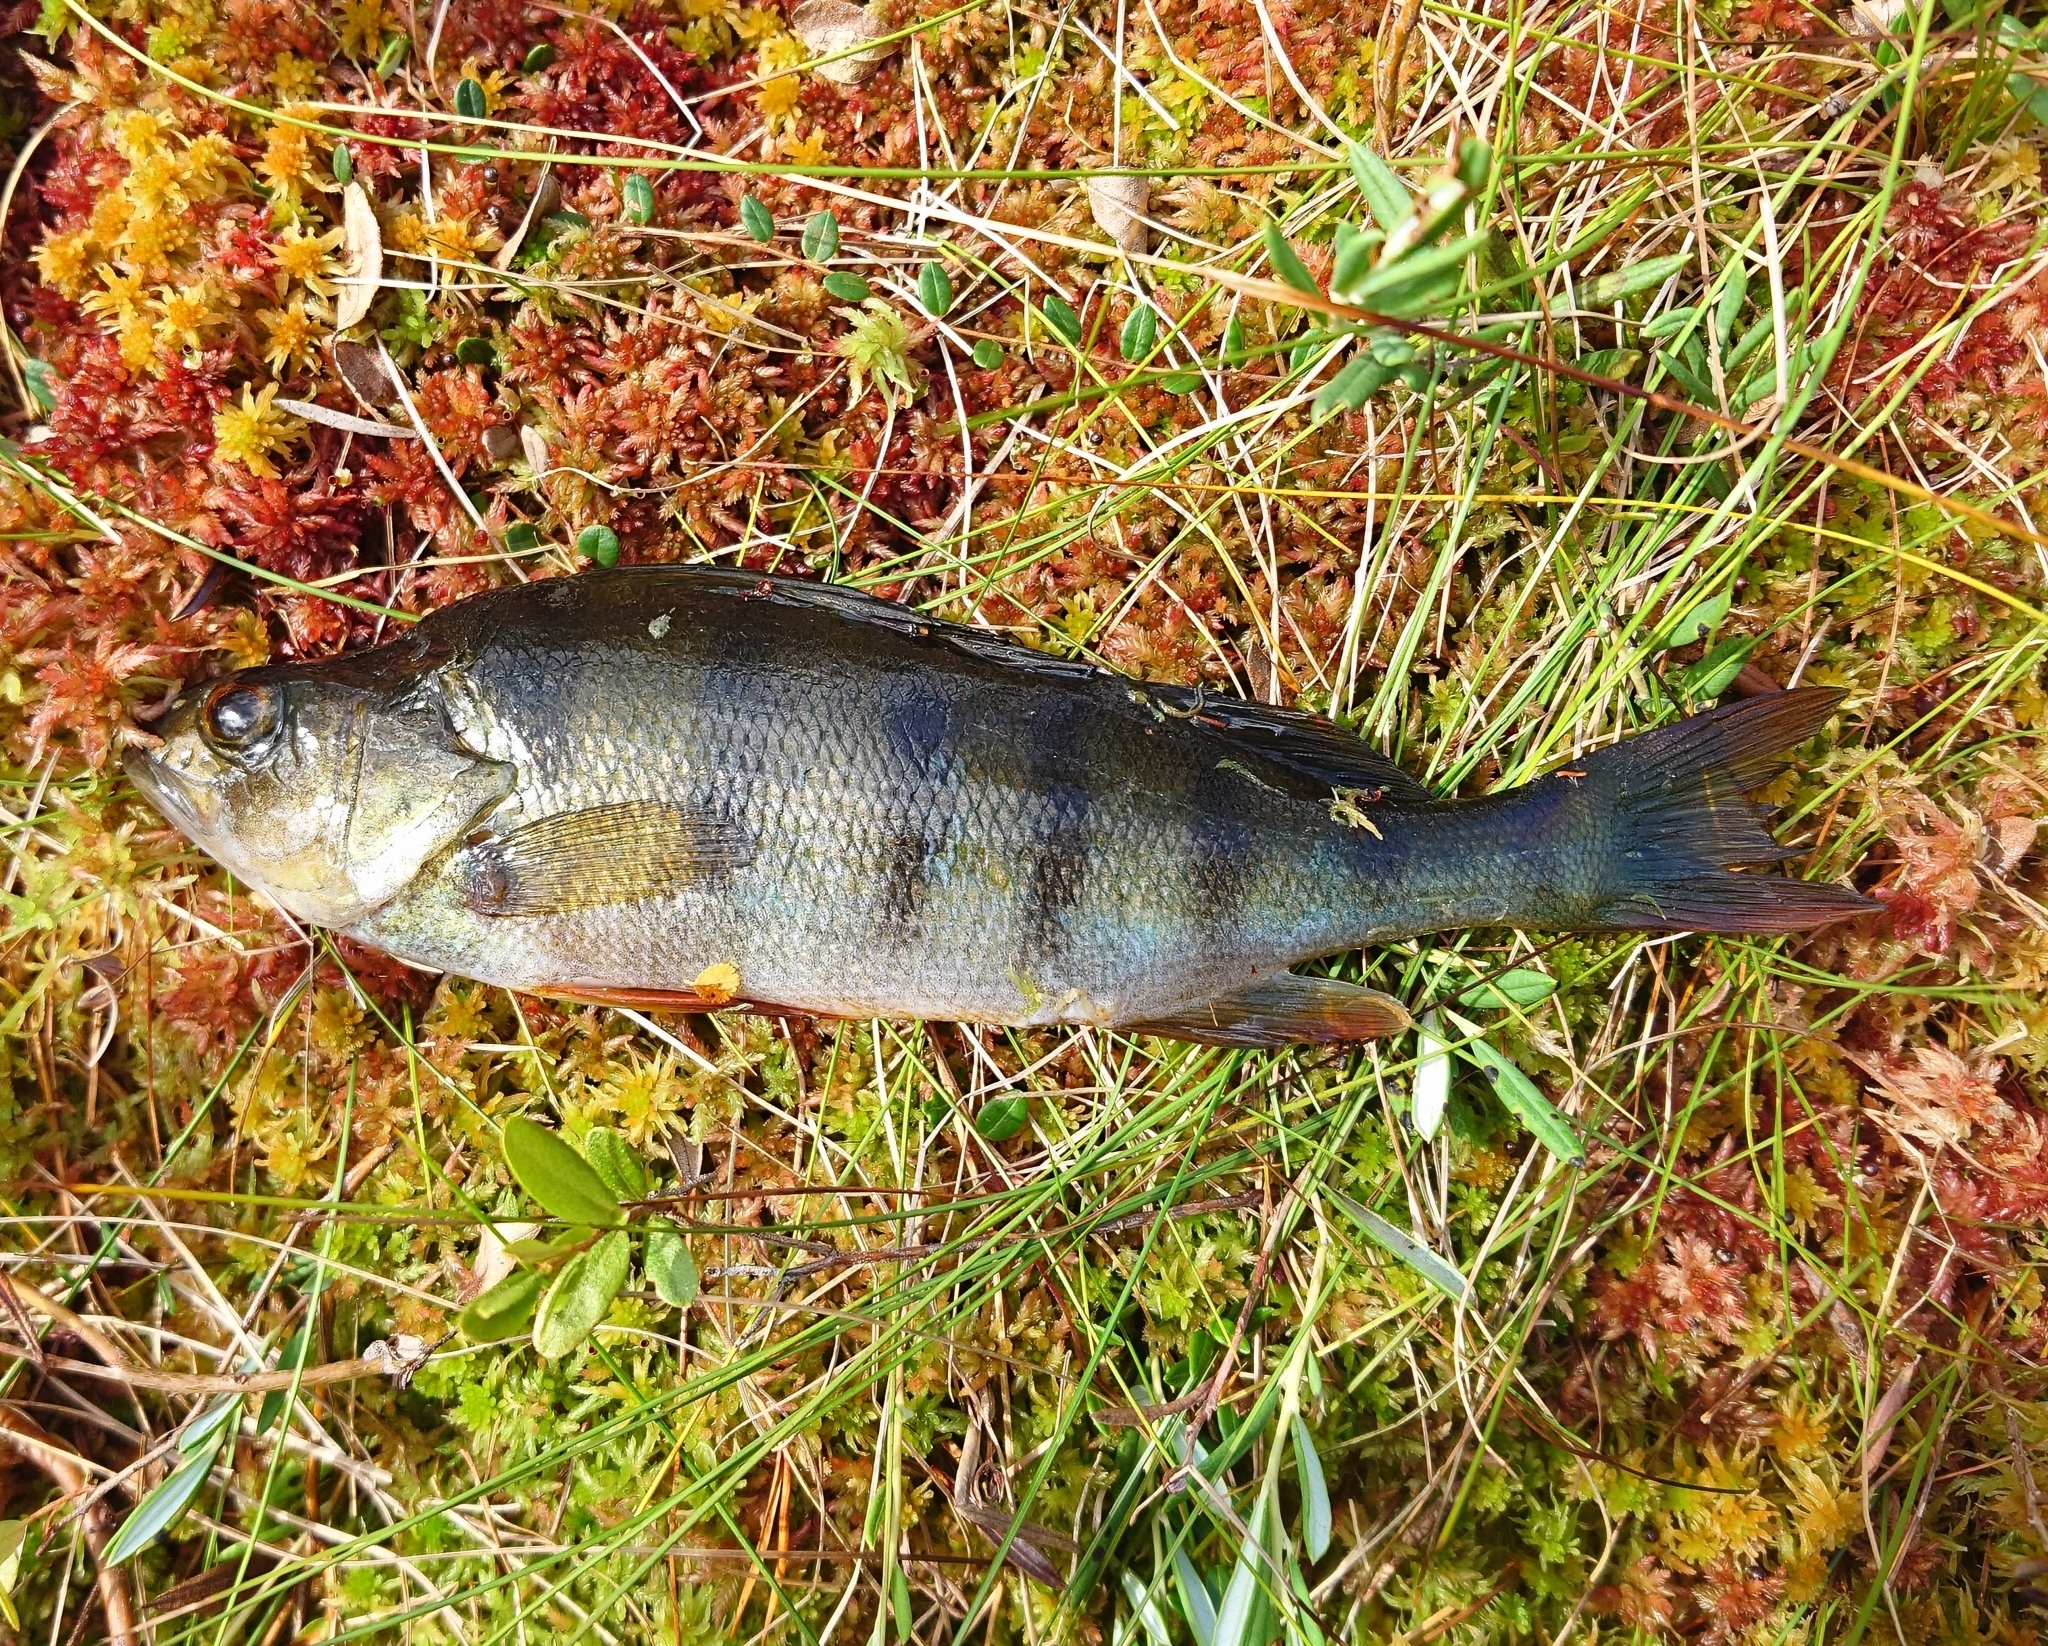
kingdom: Animalia
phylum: Chordata
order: Perciformes
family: Percidae
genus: Perca
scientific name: Perca fluviatilis
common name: Perch
